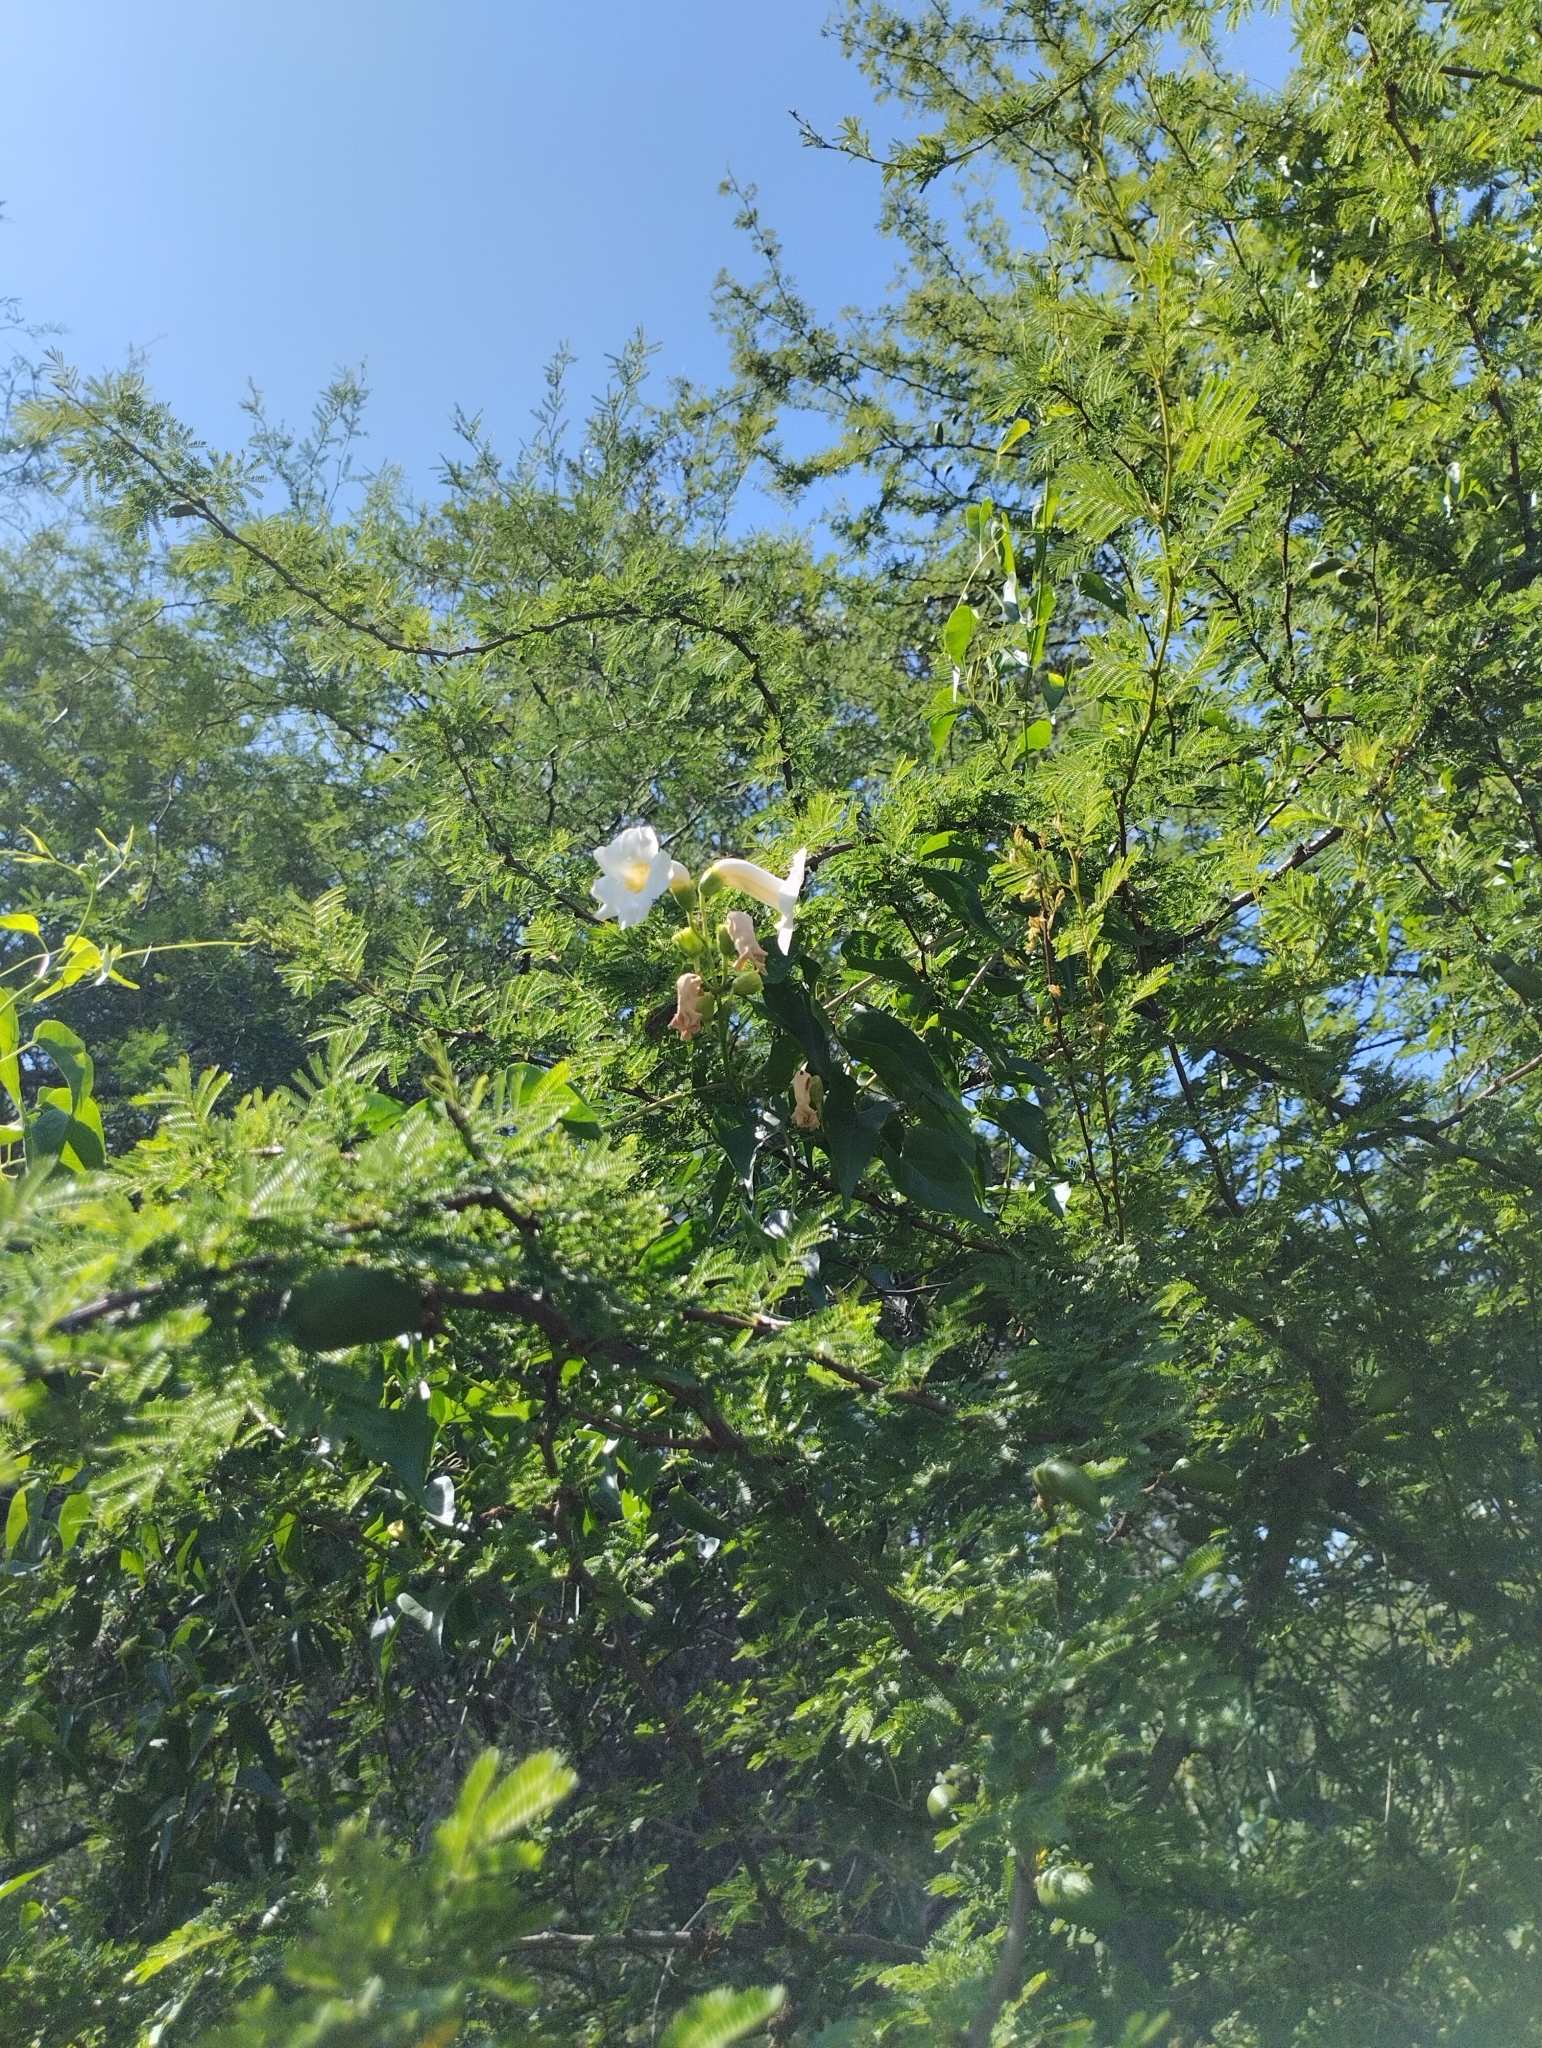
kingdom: Plantae
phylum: Tracheophyta
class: Magnoliopsida
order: Lamiales
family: Bignoniaceae
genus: Amphilophium
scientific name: Amphilophium carolinae
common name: Monkey's-comb
